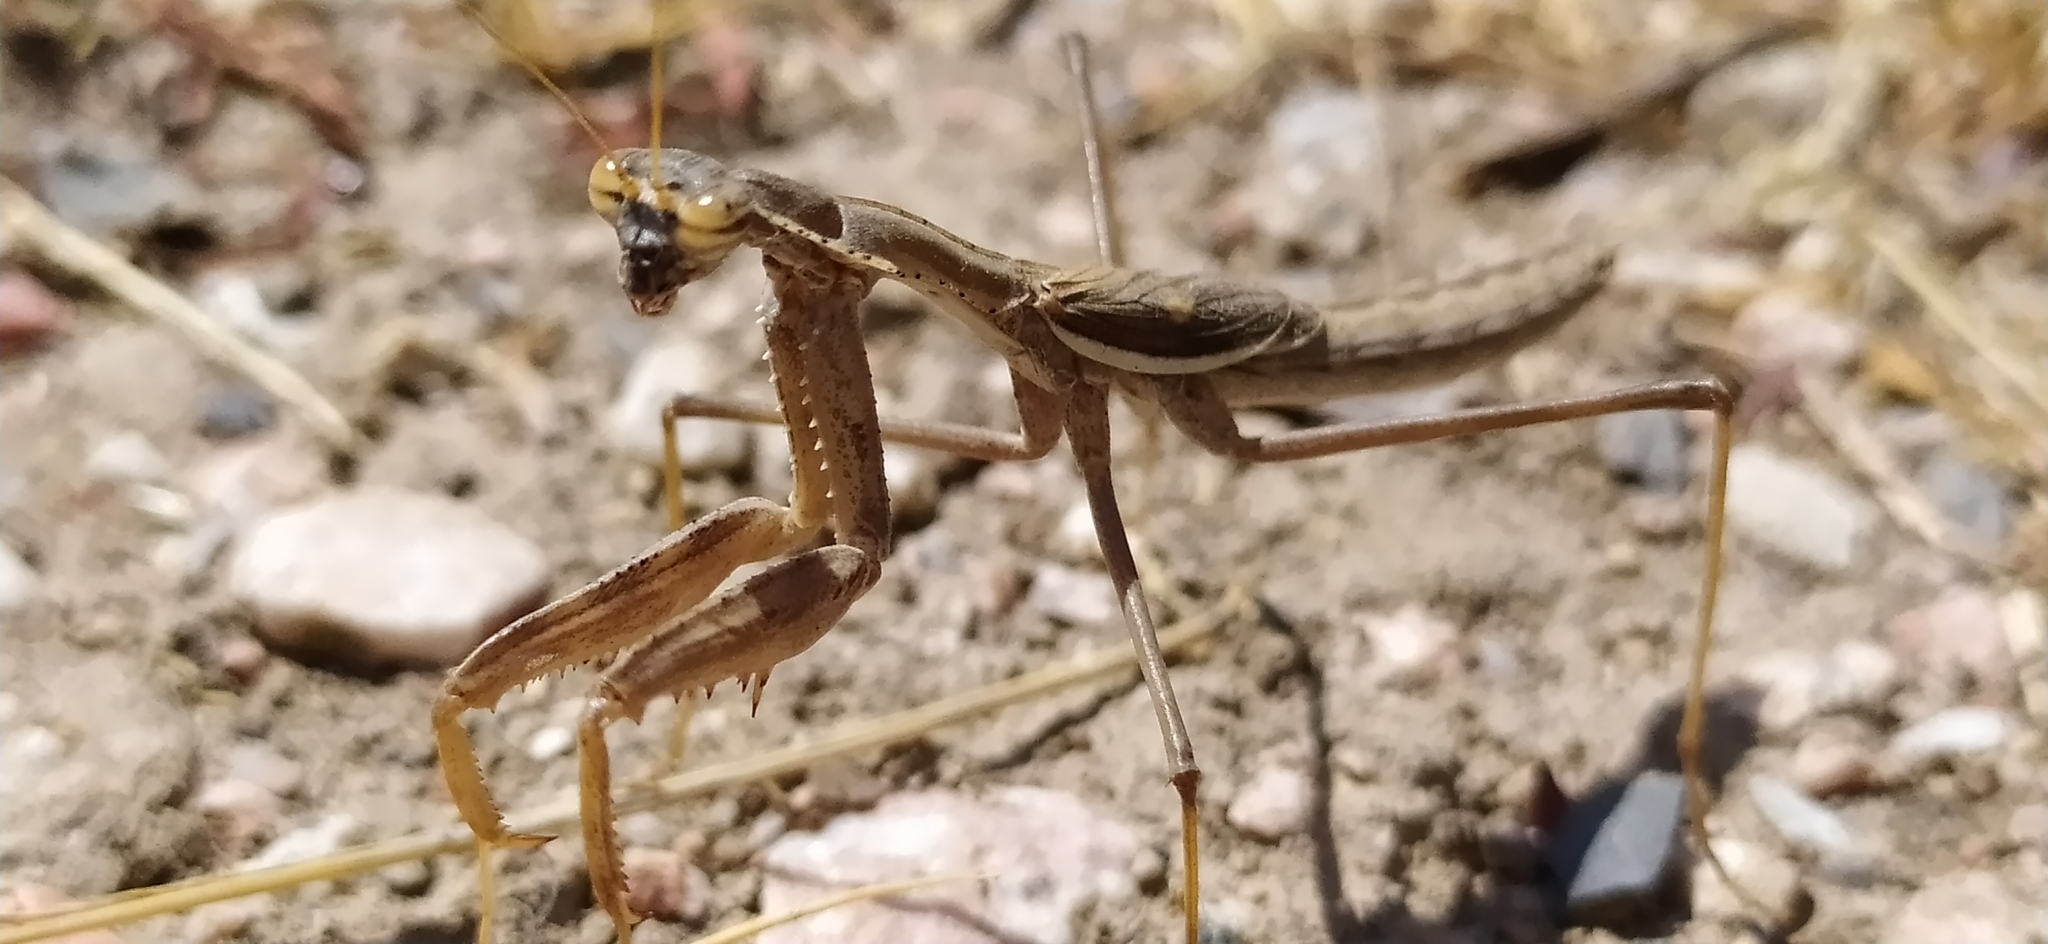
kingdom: Animalia
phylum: Arthropoda
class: Insecta
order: Mantodea
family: Rivetinidae
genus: Bolivaria
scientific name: Bolivaria brachyptera
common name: Bolivar's short winged mantis
